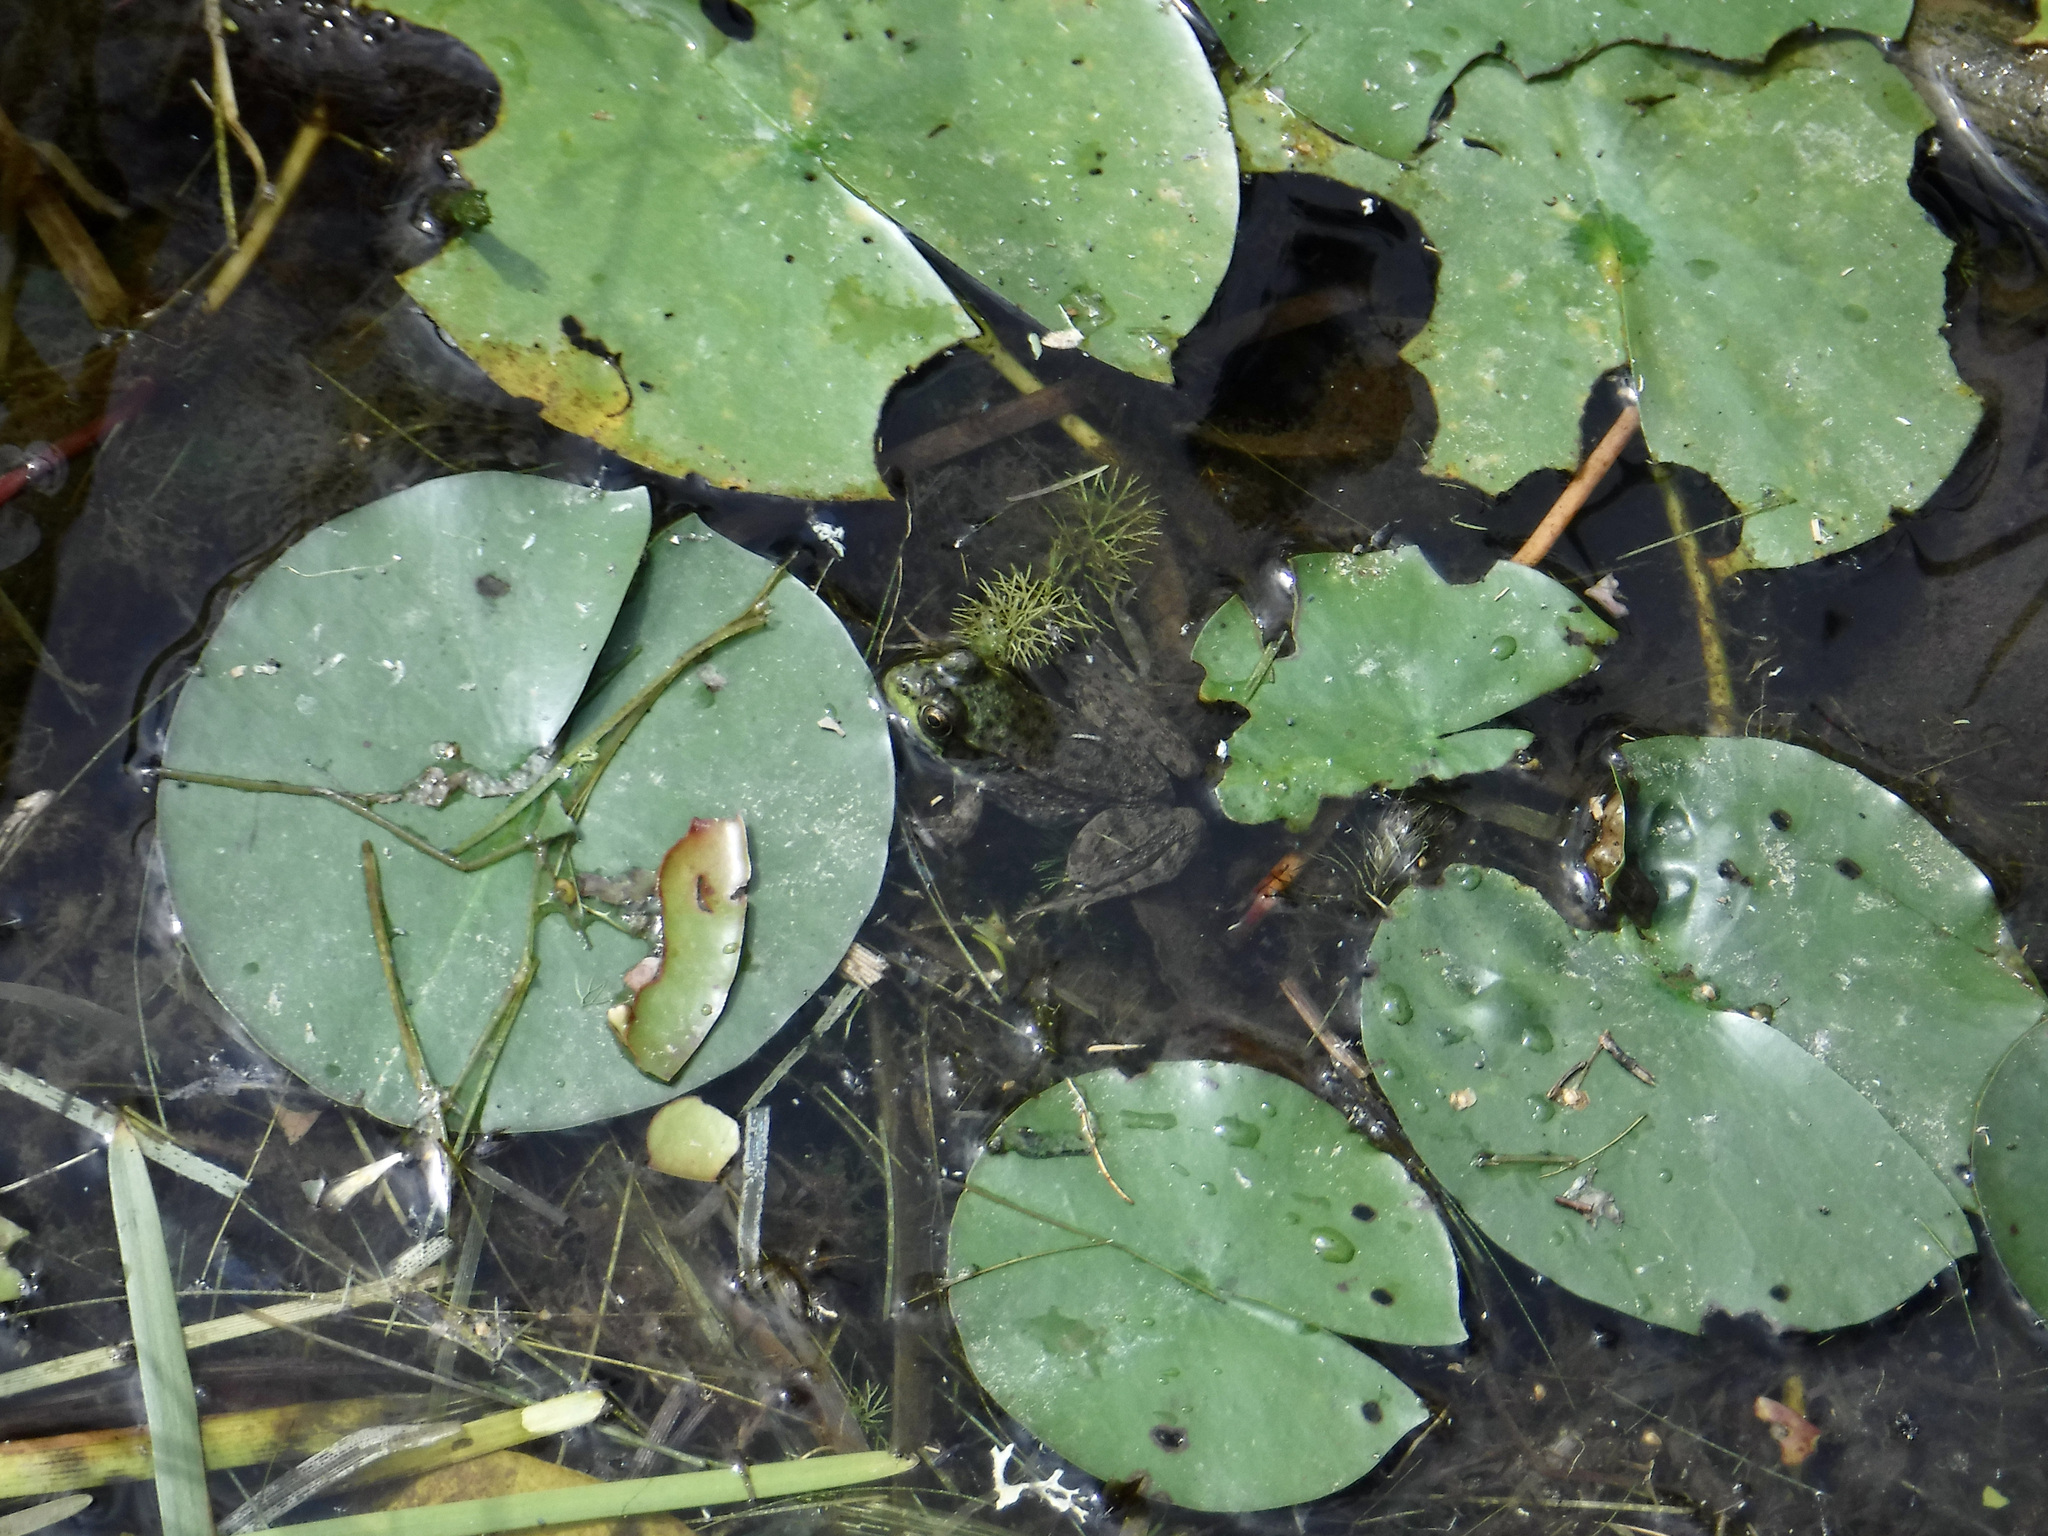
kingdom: Animalia
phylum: Chordata
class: Amphibia
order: Anura
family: Ranidae
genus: Lithobates
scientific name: Lithobates clamitans
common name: Green frog
